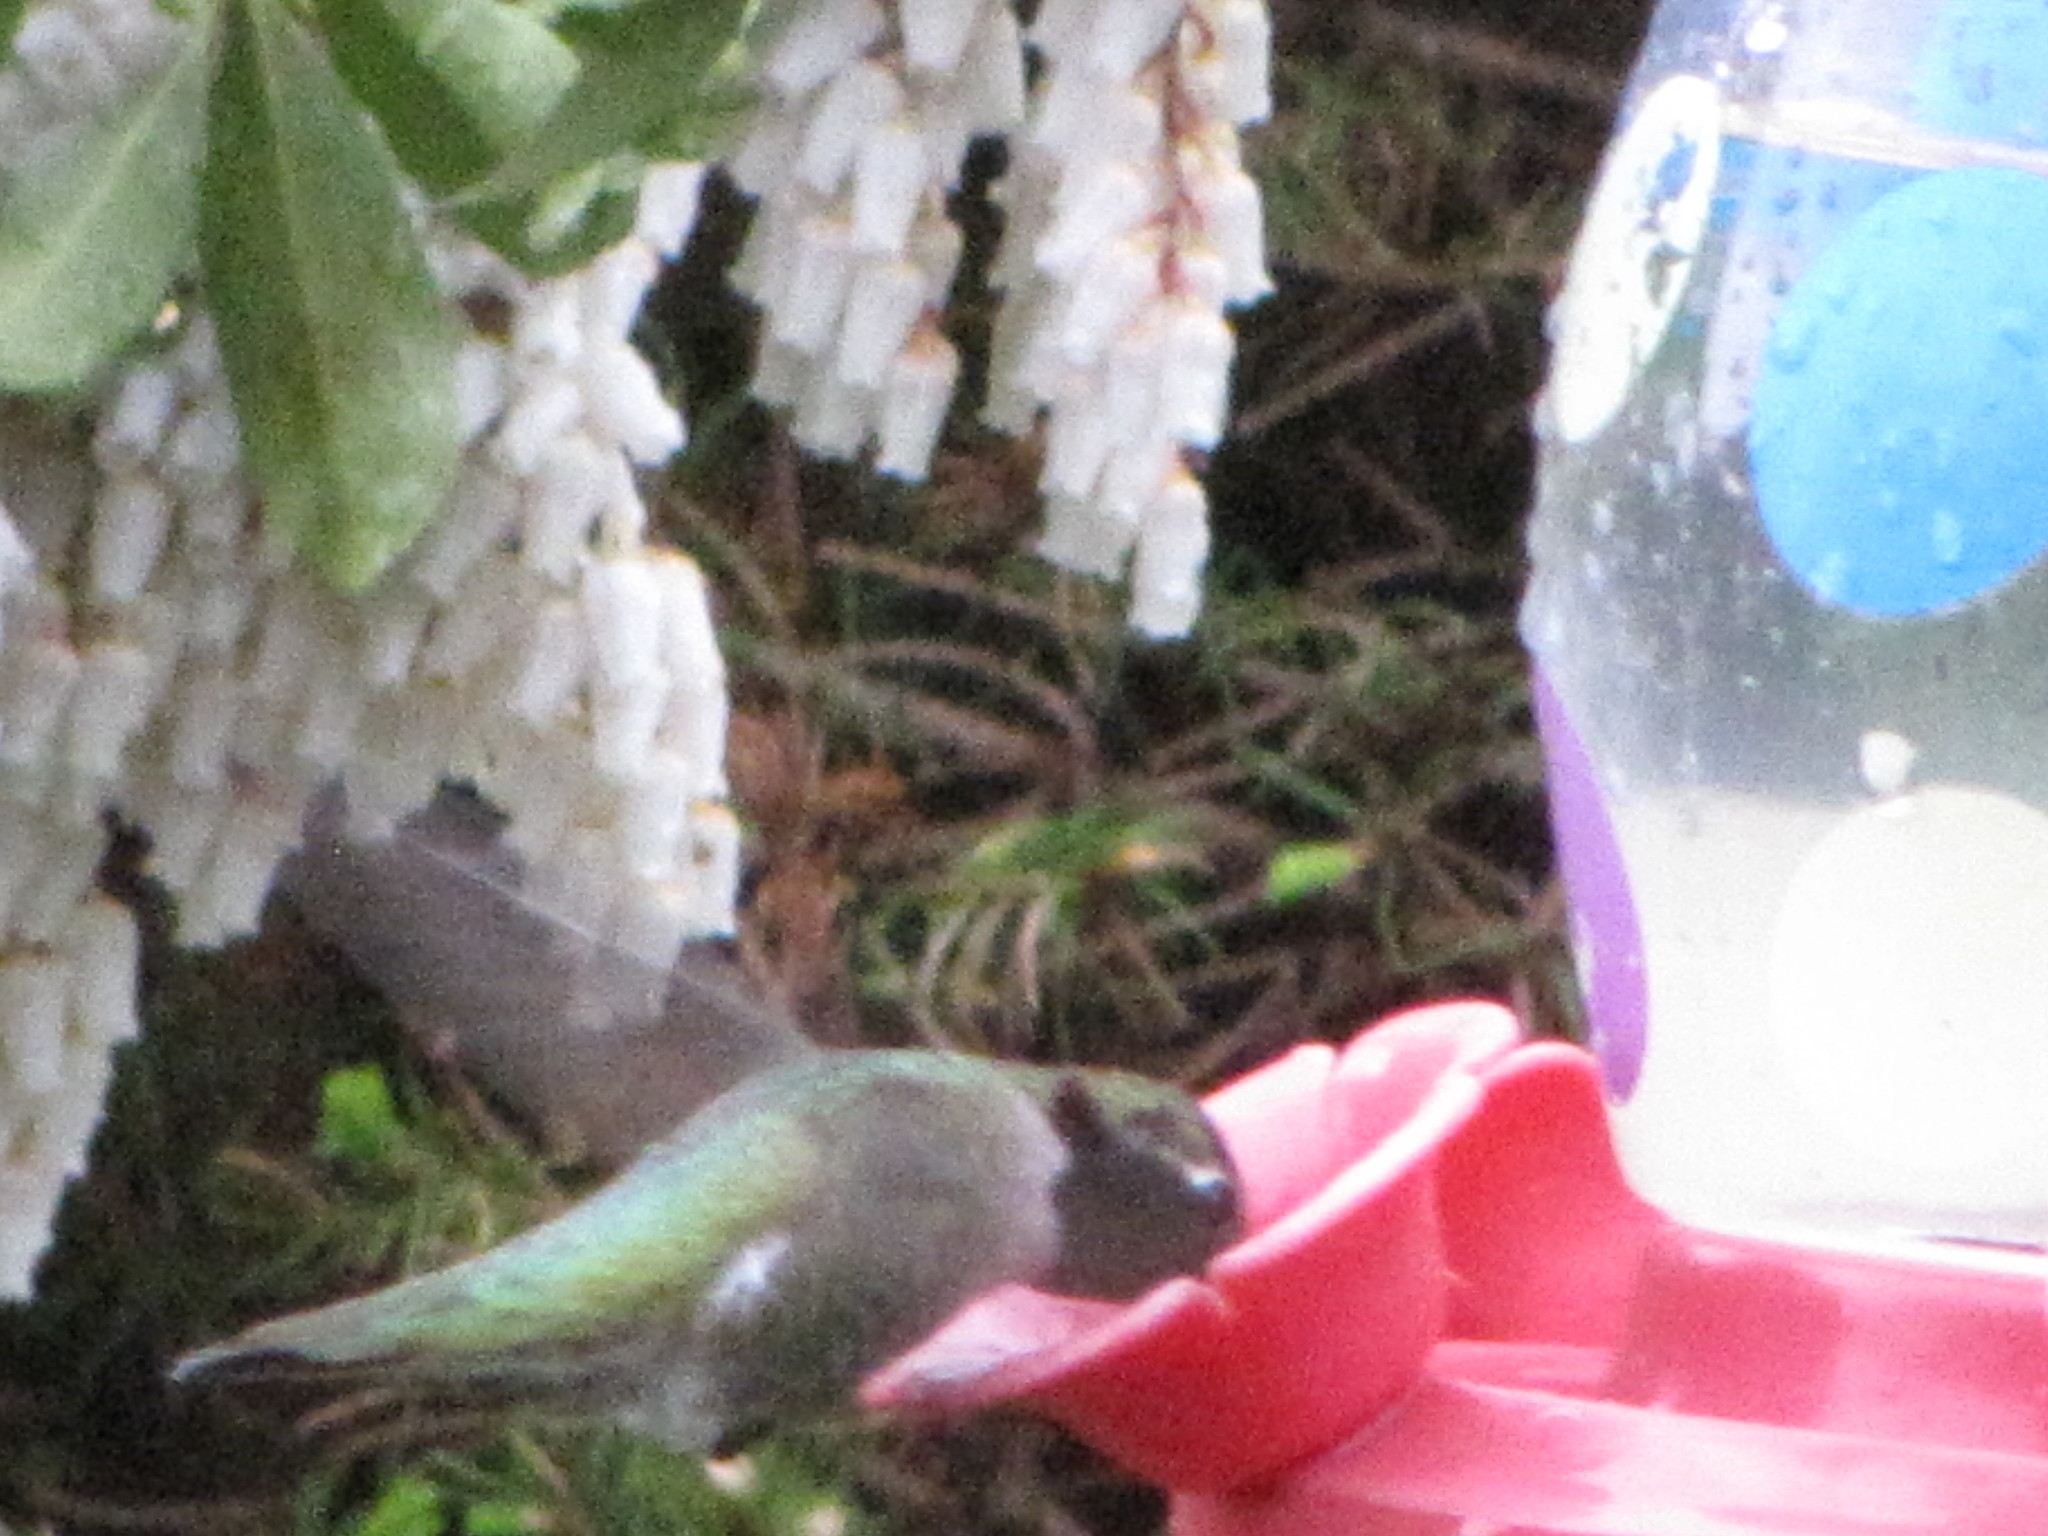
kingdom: Animalia
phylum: Chordata
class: Aves
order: Apodiformes
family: Trochilidae
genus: Calypte
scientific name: Calypte anna
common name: Anna's hummingbird
